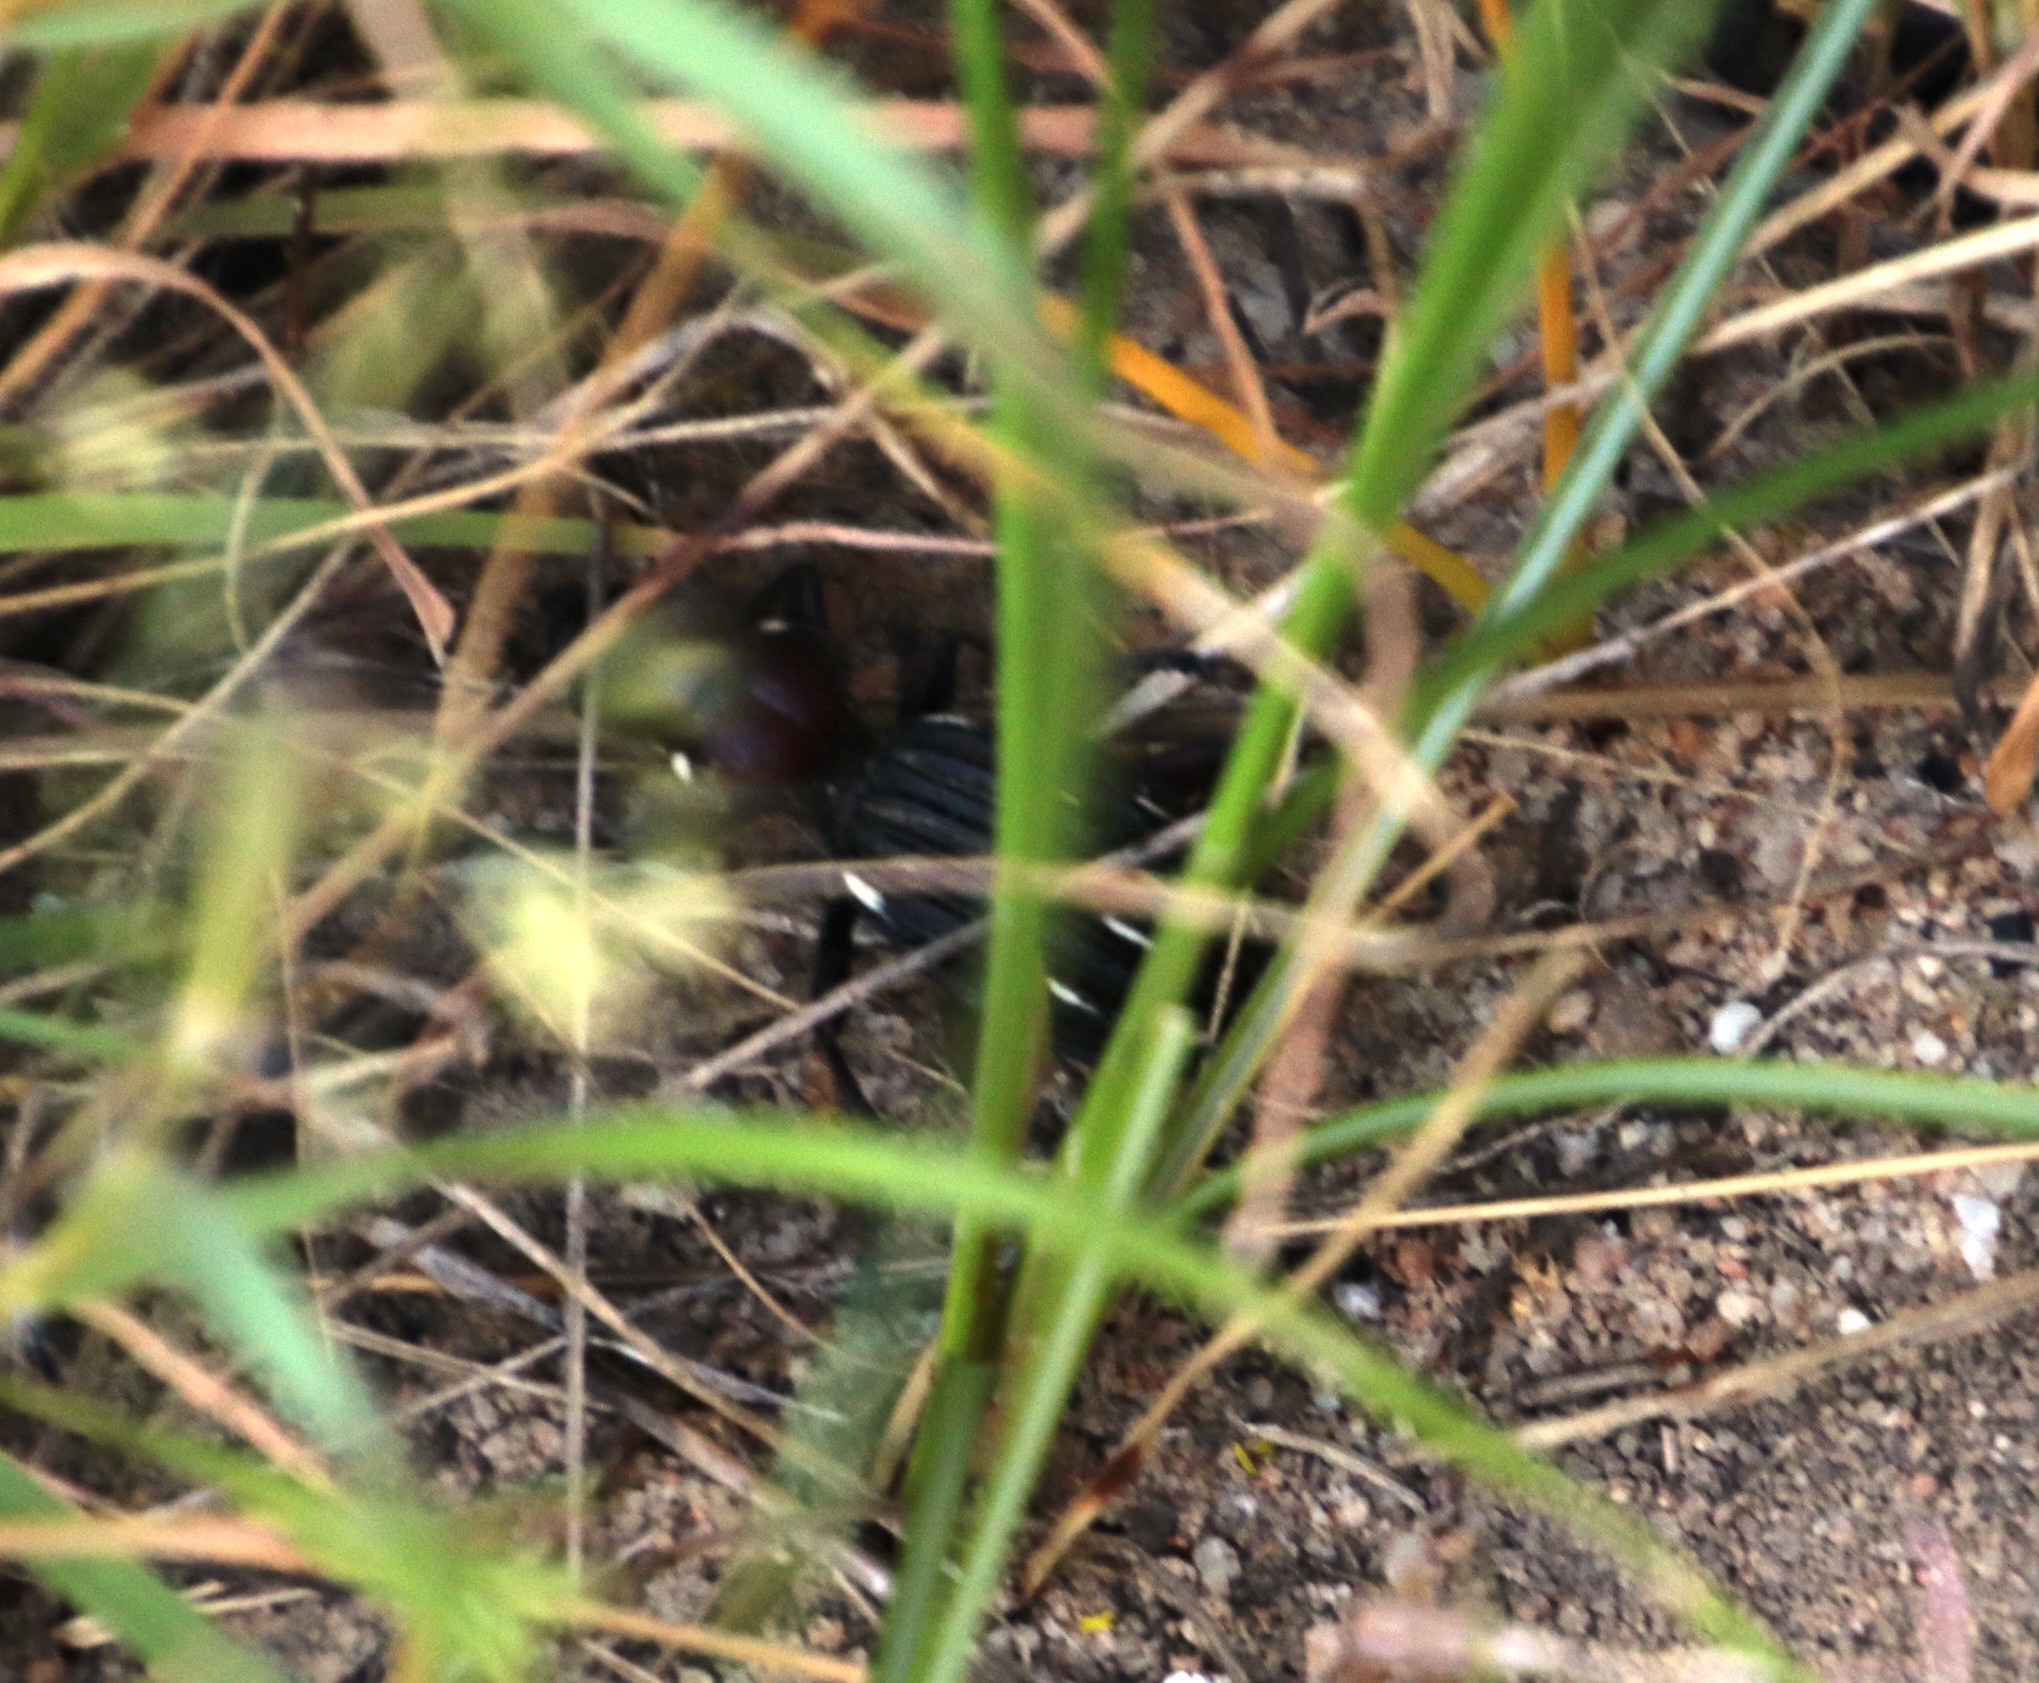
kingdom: Animalia
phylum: Arthropoda
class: Insecta
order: Coleoptera
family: Carabidae
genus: Anthia
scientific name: Anthia decemguttata
